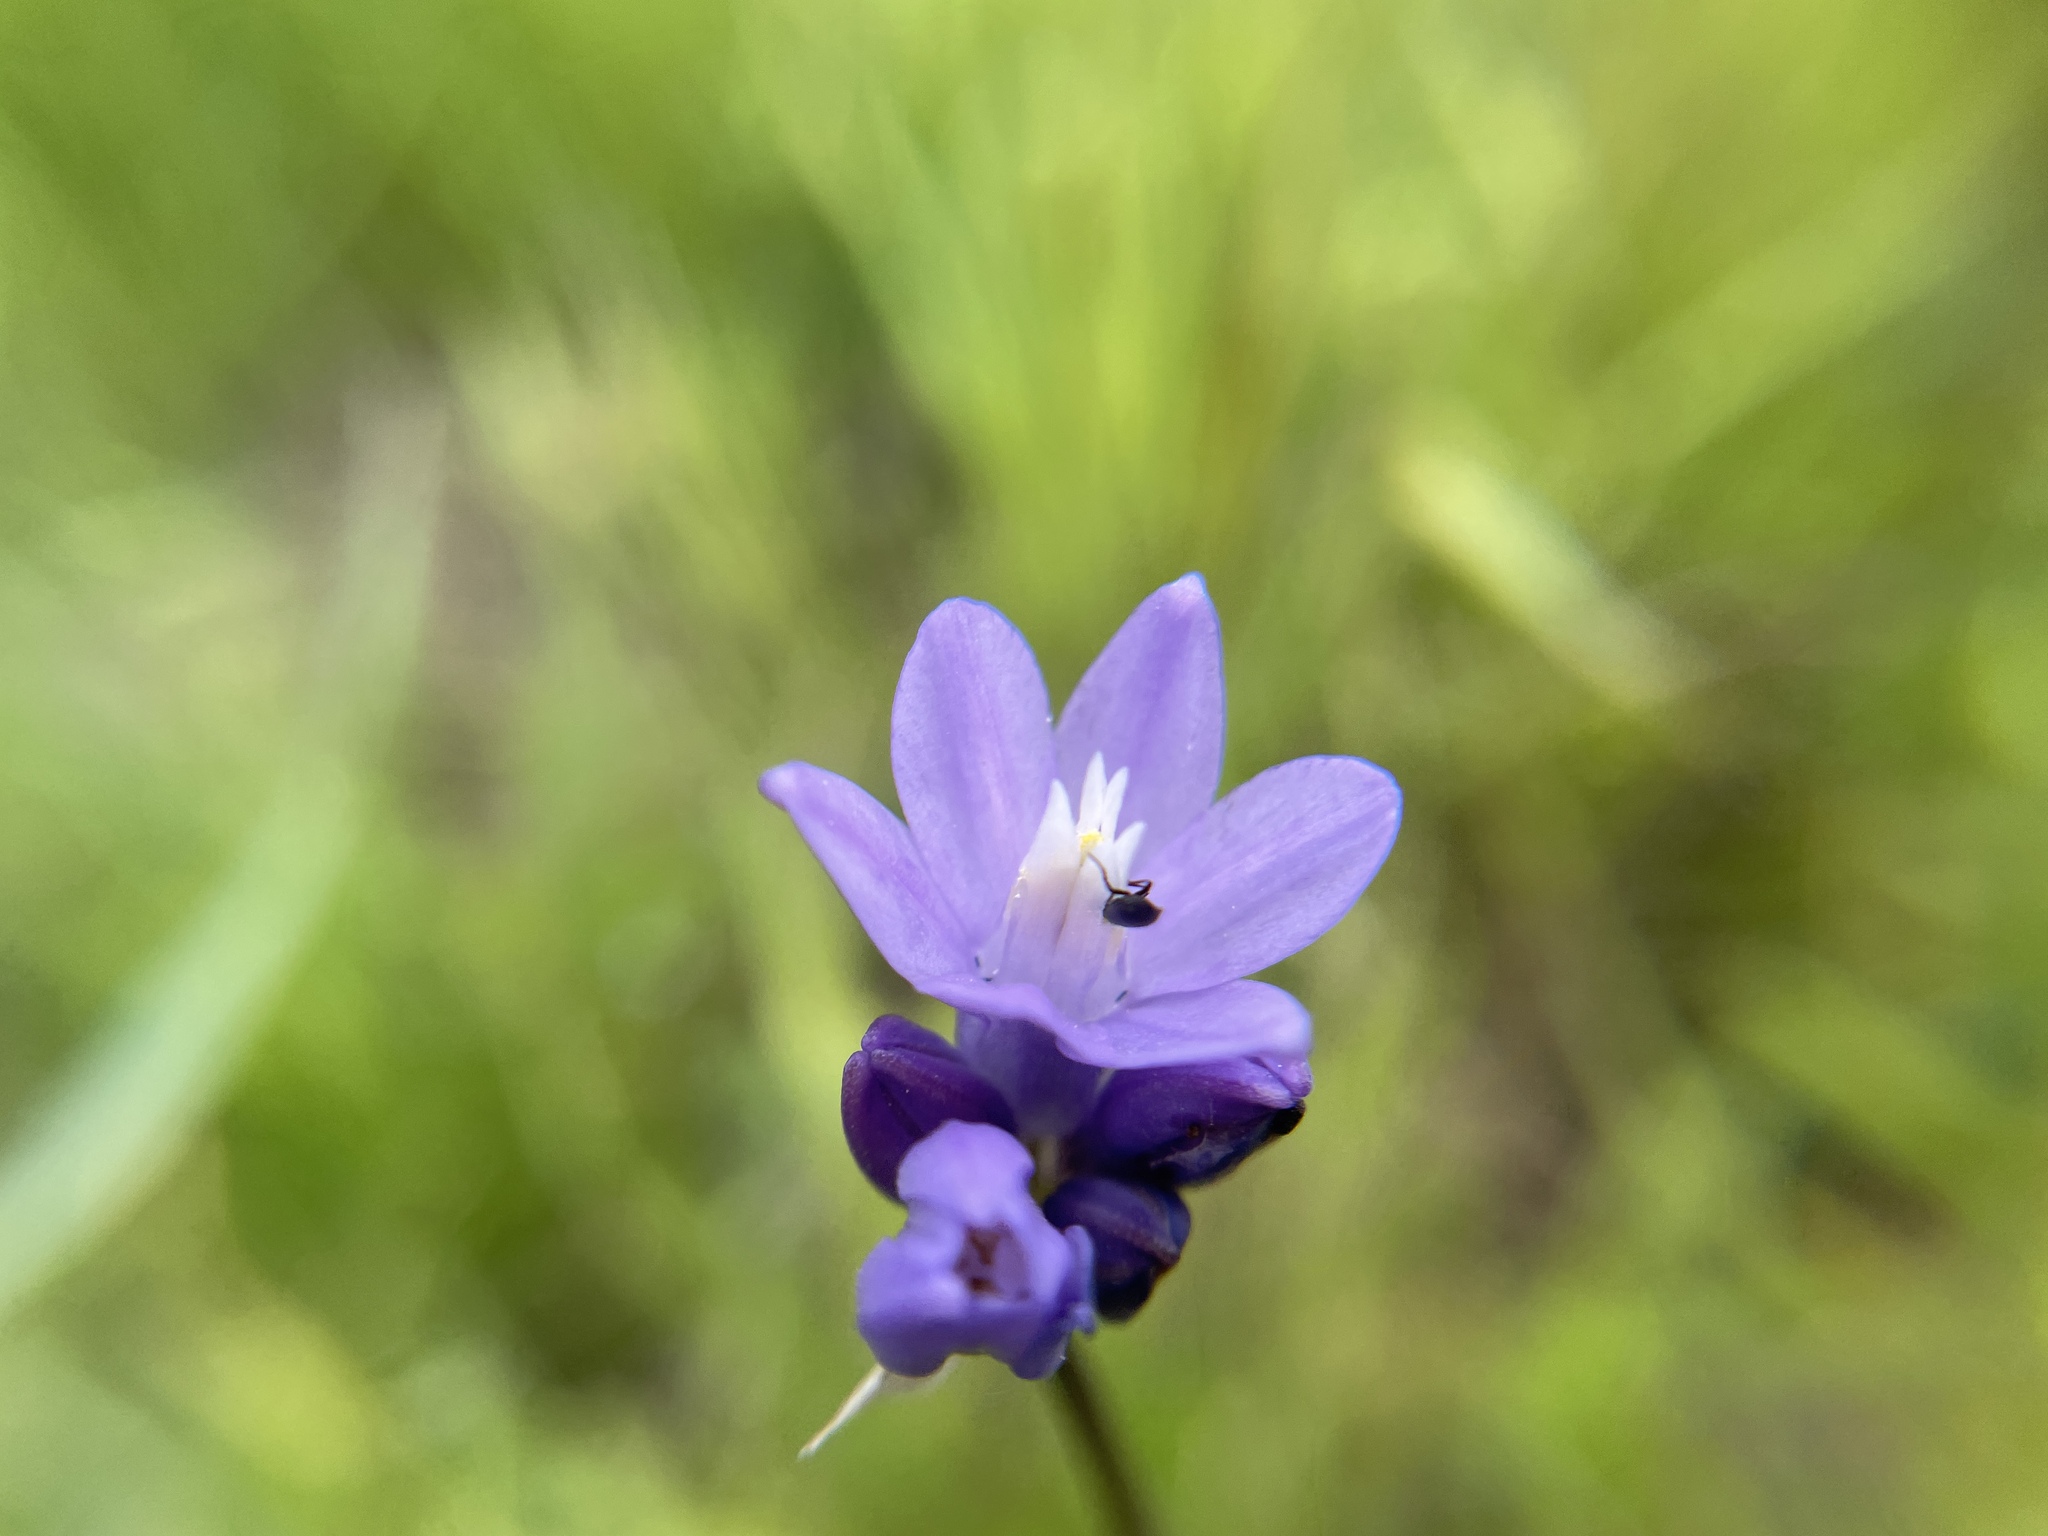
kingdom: Plantae
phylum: Tracheophyta
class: Liliopsida
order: Asparagales
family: Asparagaceae
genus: Dipterostemon
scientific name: Dipterostemon capitatus
